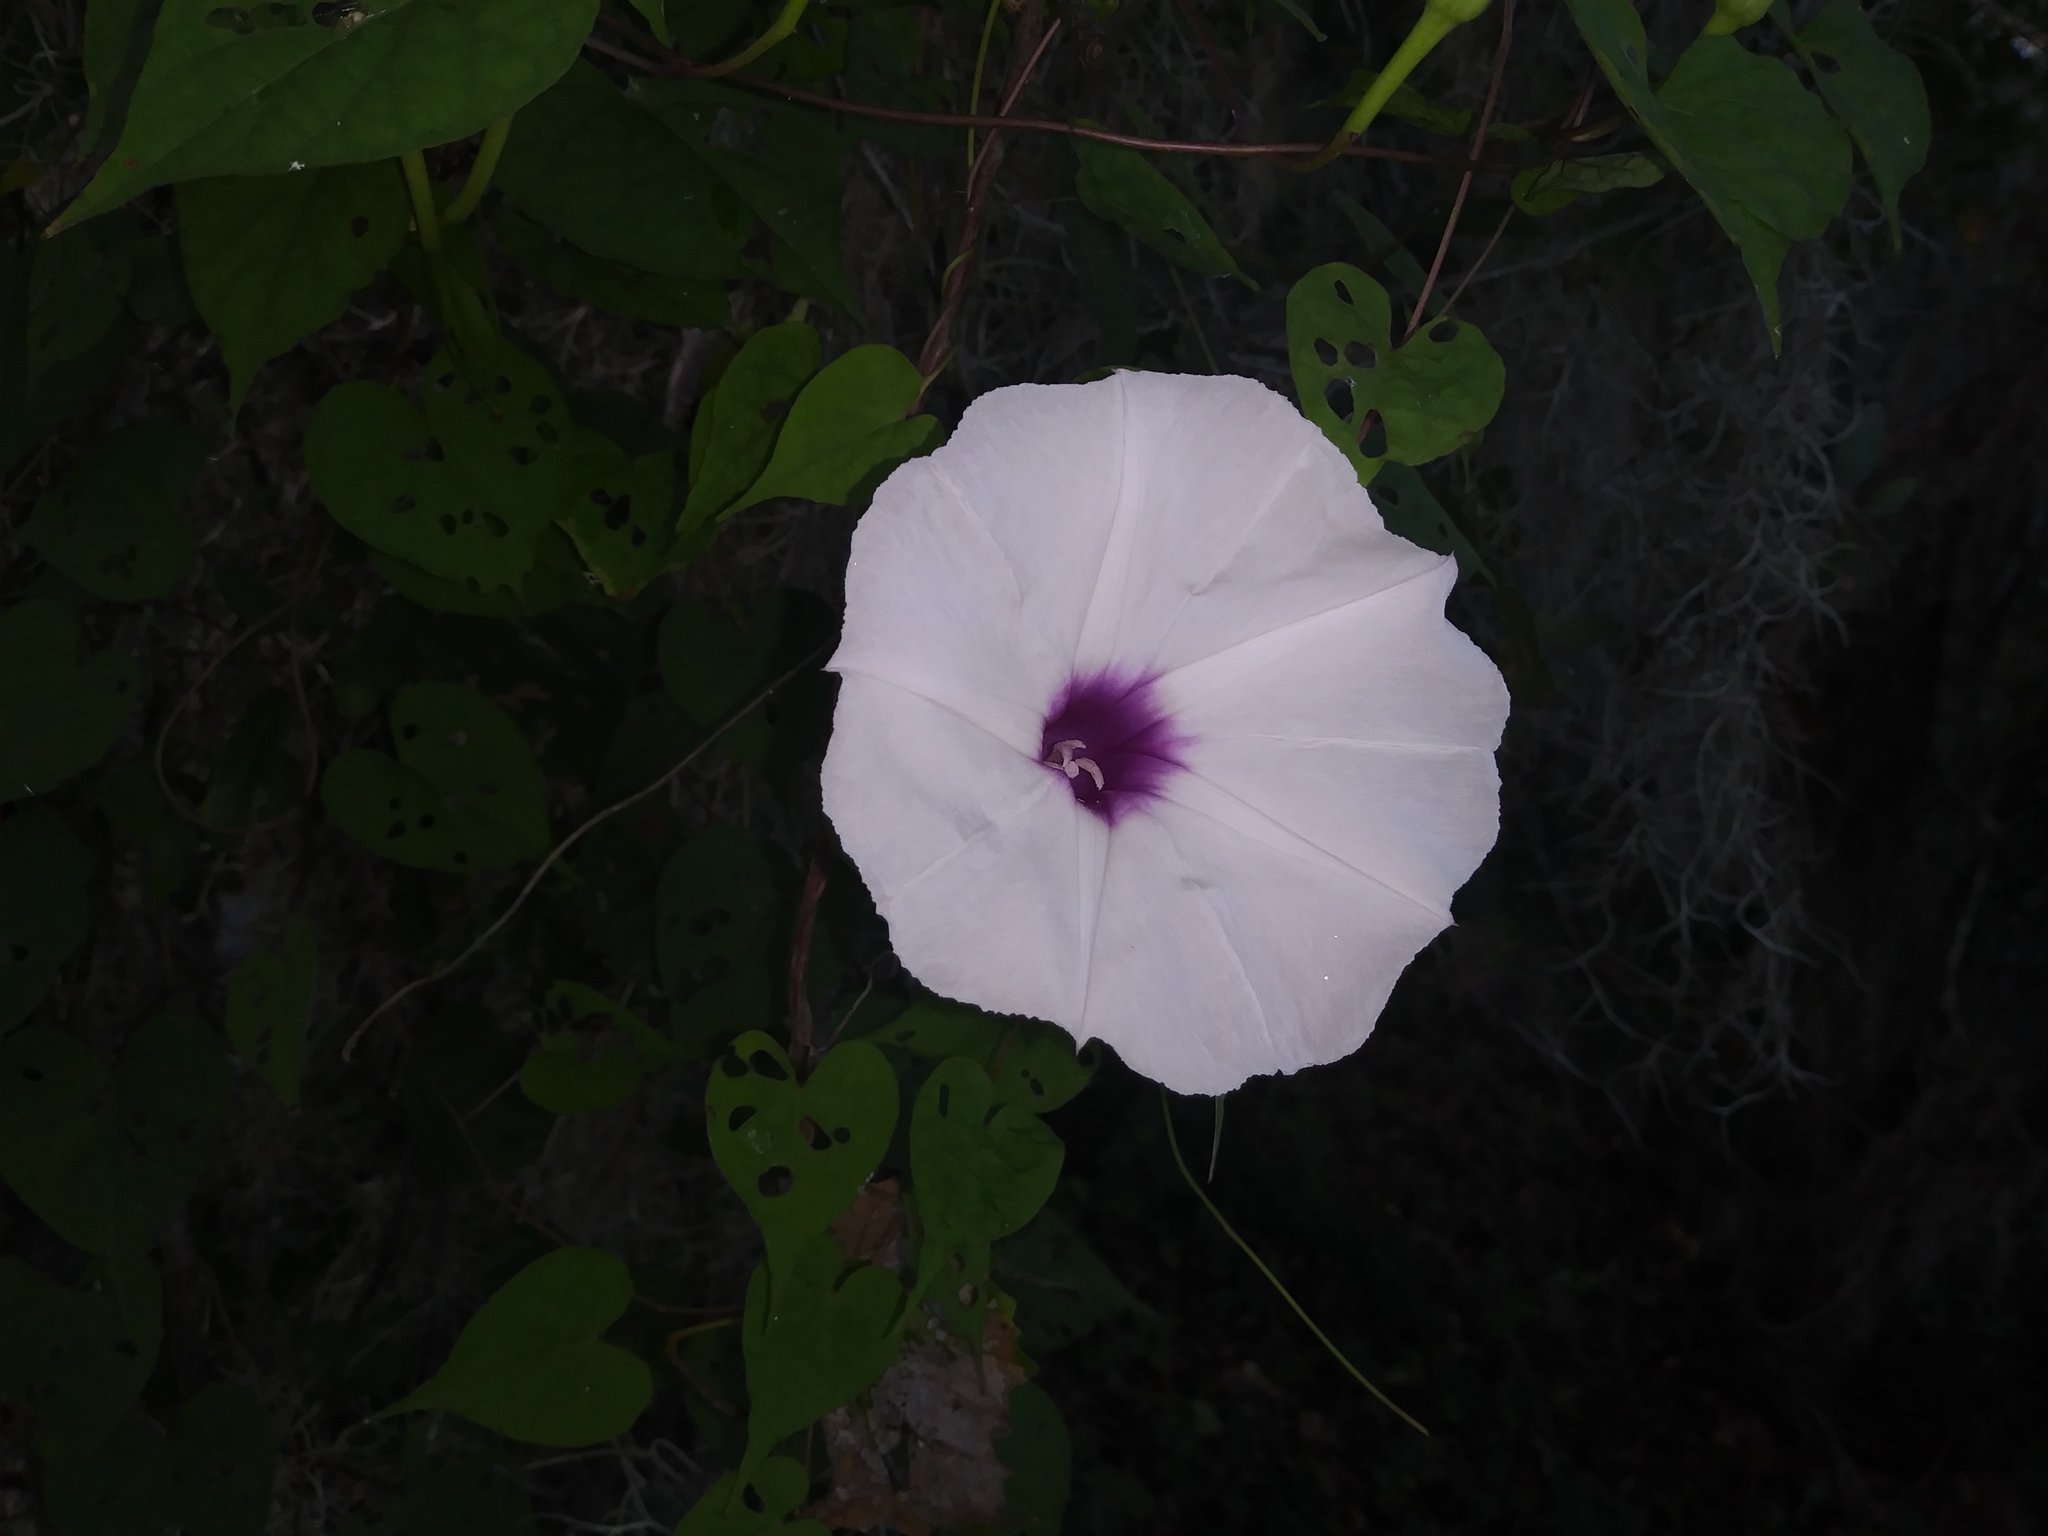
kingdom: Plantae
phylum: Tracheophyta
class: Magnoliopsida
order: Solanales
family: Convolvulaceae
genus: Ipomoea
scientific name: Ipomoea pandurata
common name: Man-of-the-earth
